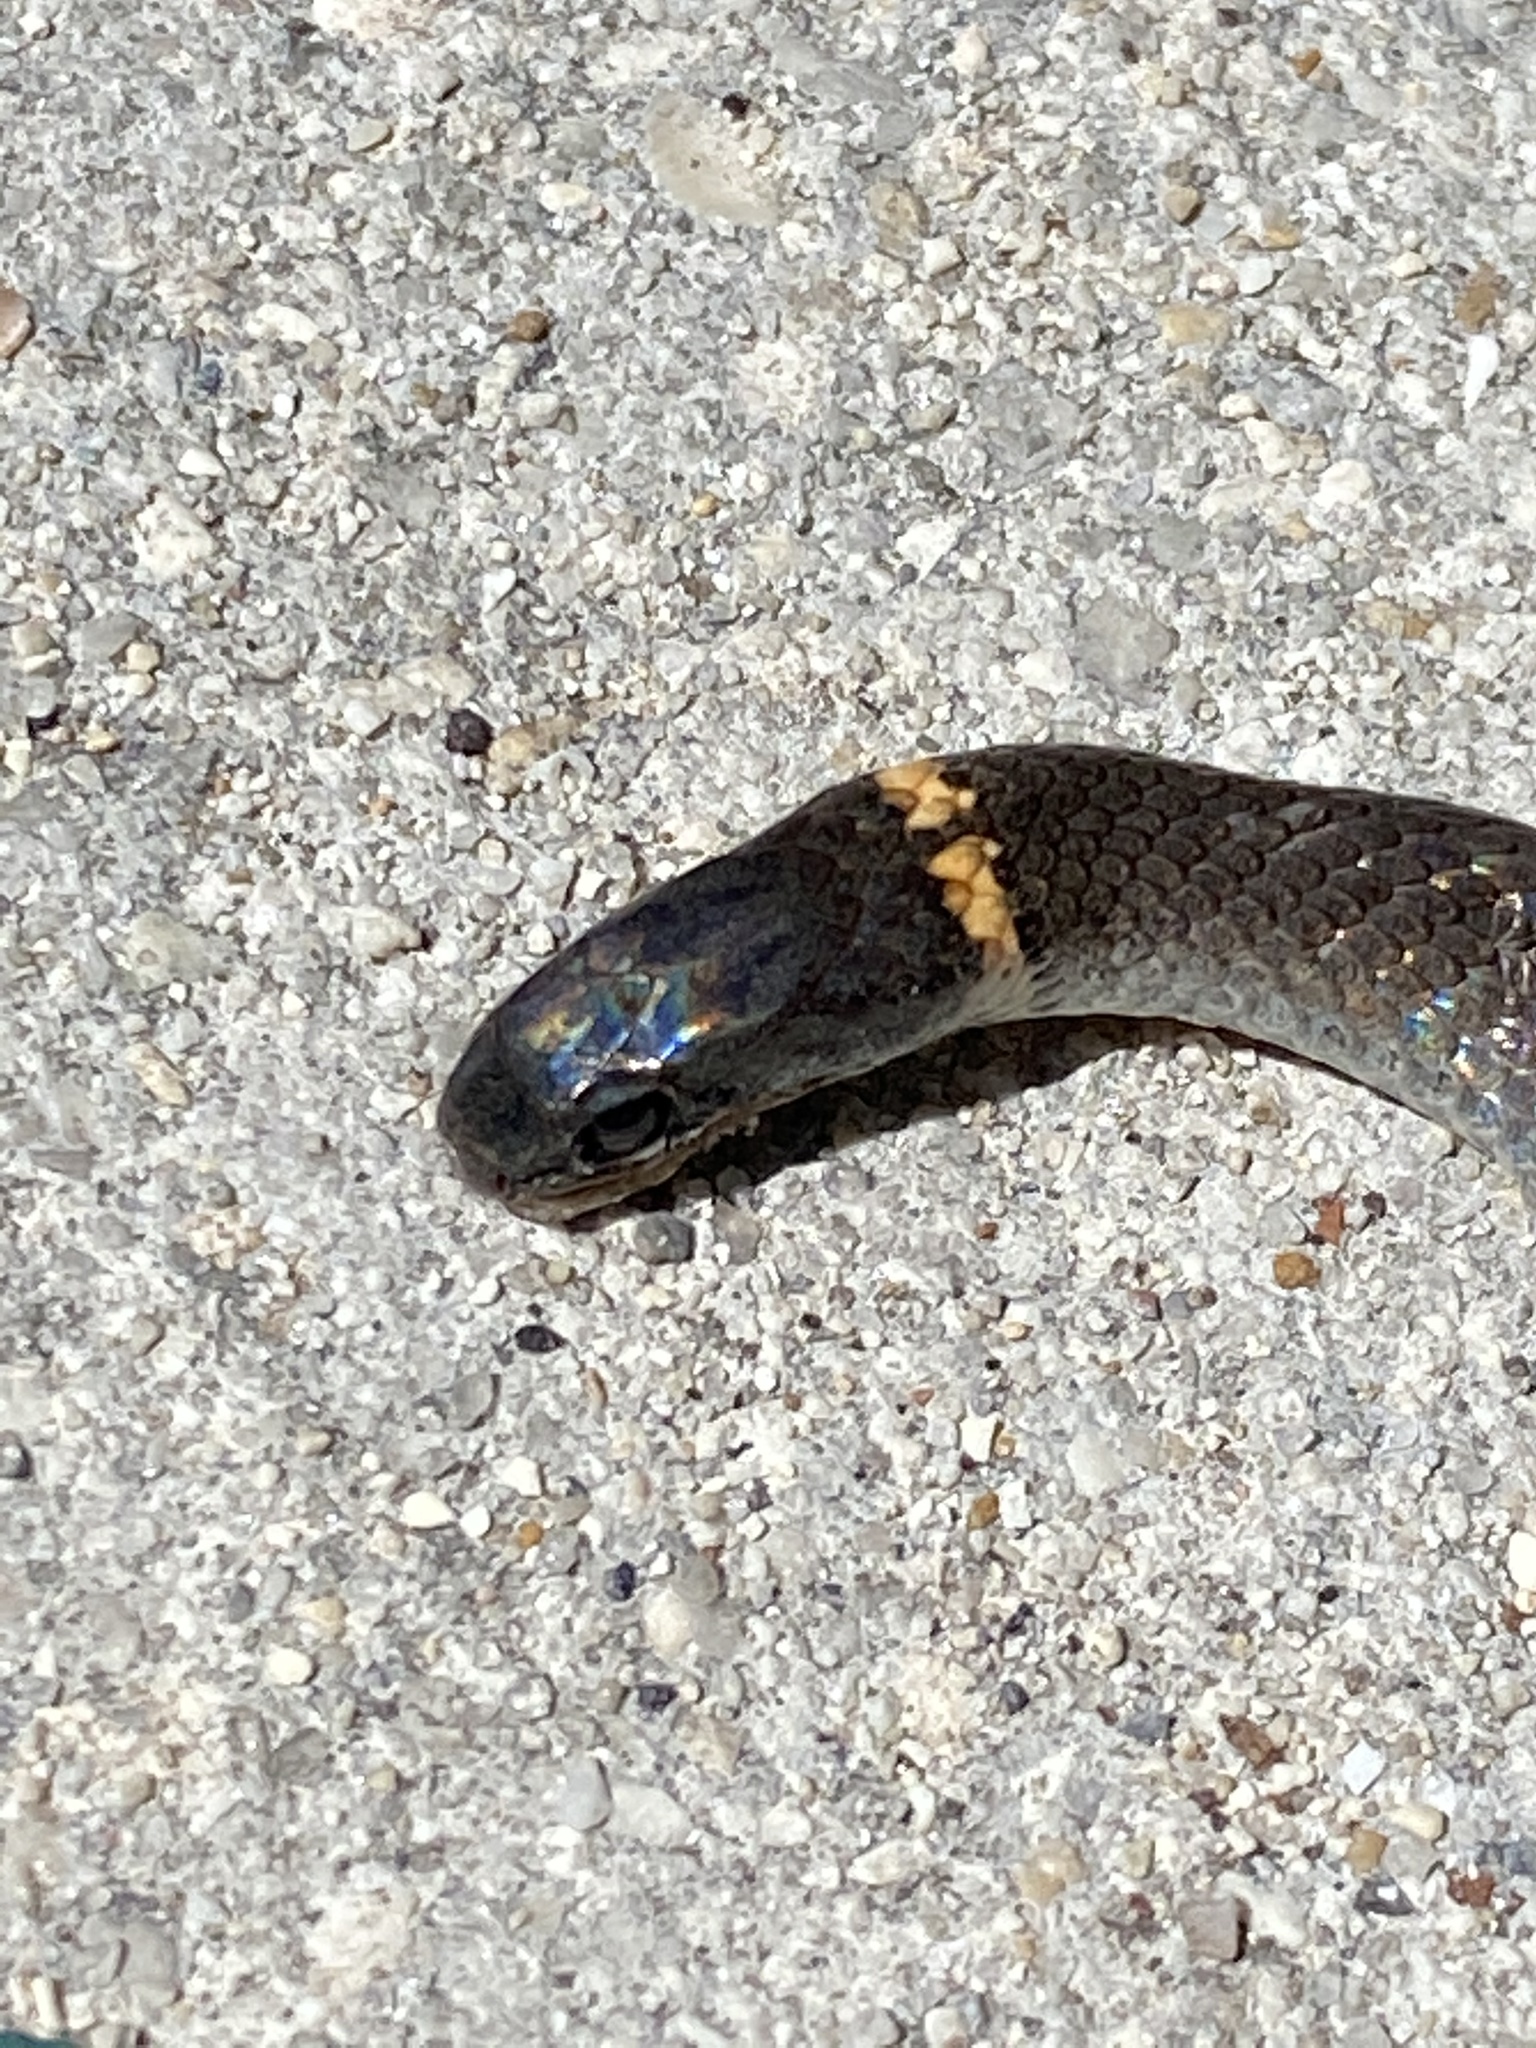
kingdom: Animalia
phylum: Chordata
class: Squamata
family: Colubridae
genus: Diadophis
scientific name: Diadophis punctatus
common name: Ringneck snake
